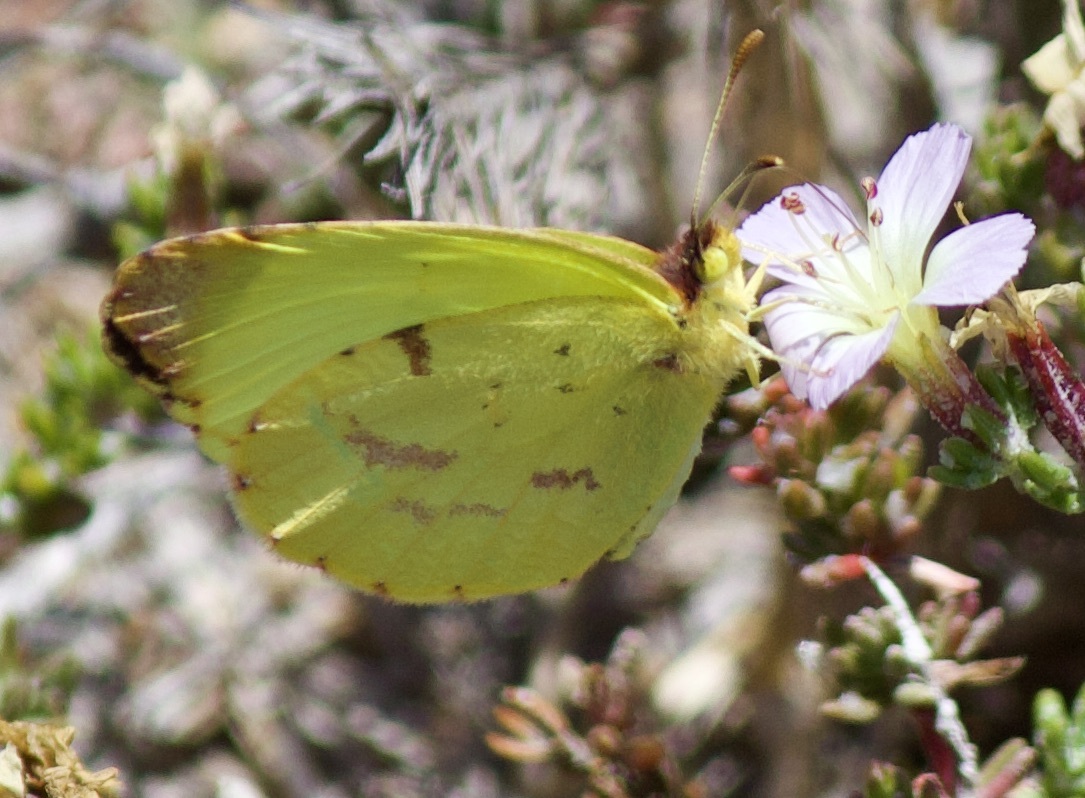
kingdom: Animalia
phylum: Arthropoda
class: Insecta
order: Lepidoptera
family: Pieridae
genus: Teriocolias
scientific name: Teriocolias
